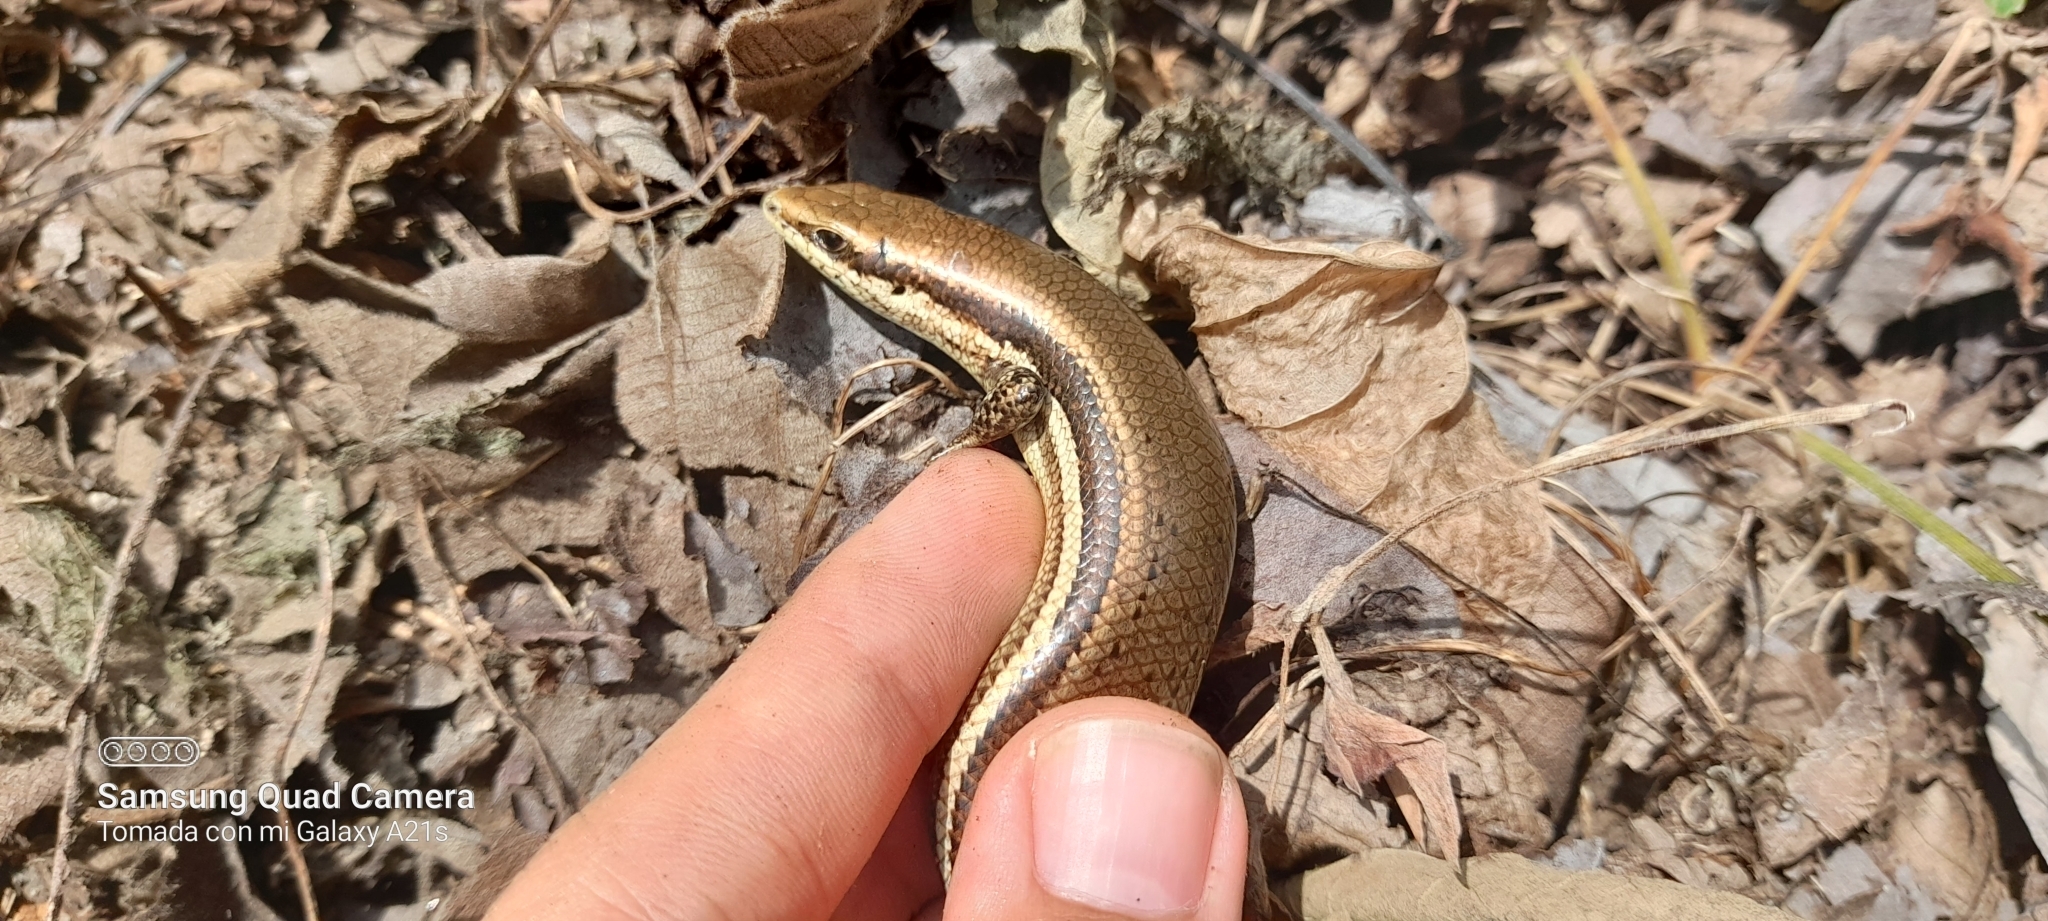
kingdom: Animalia
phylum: Chordata
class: Squamata
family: Scincidae
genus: Marisora
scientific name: Marisora unimarginata
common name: Central american mabuya
